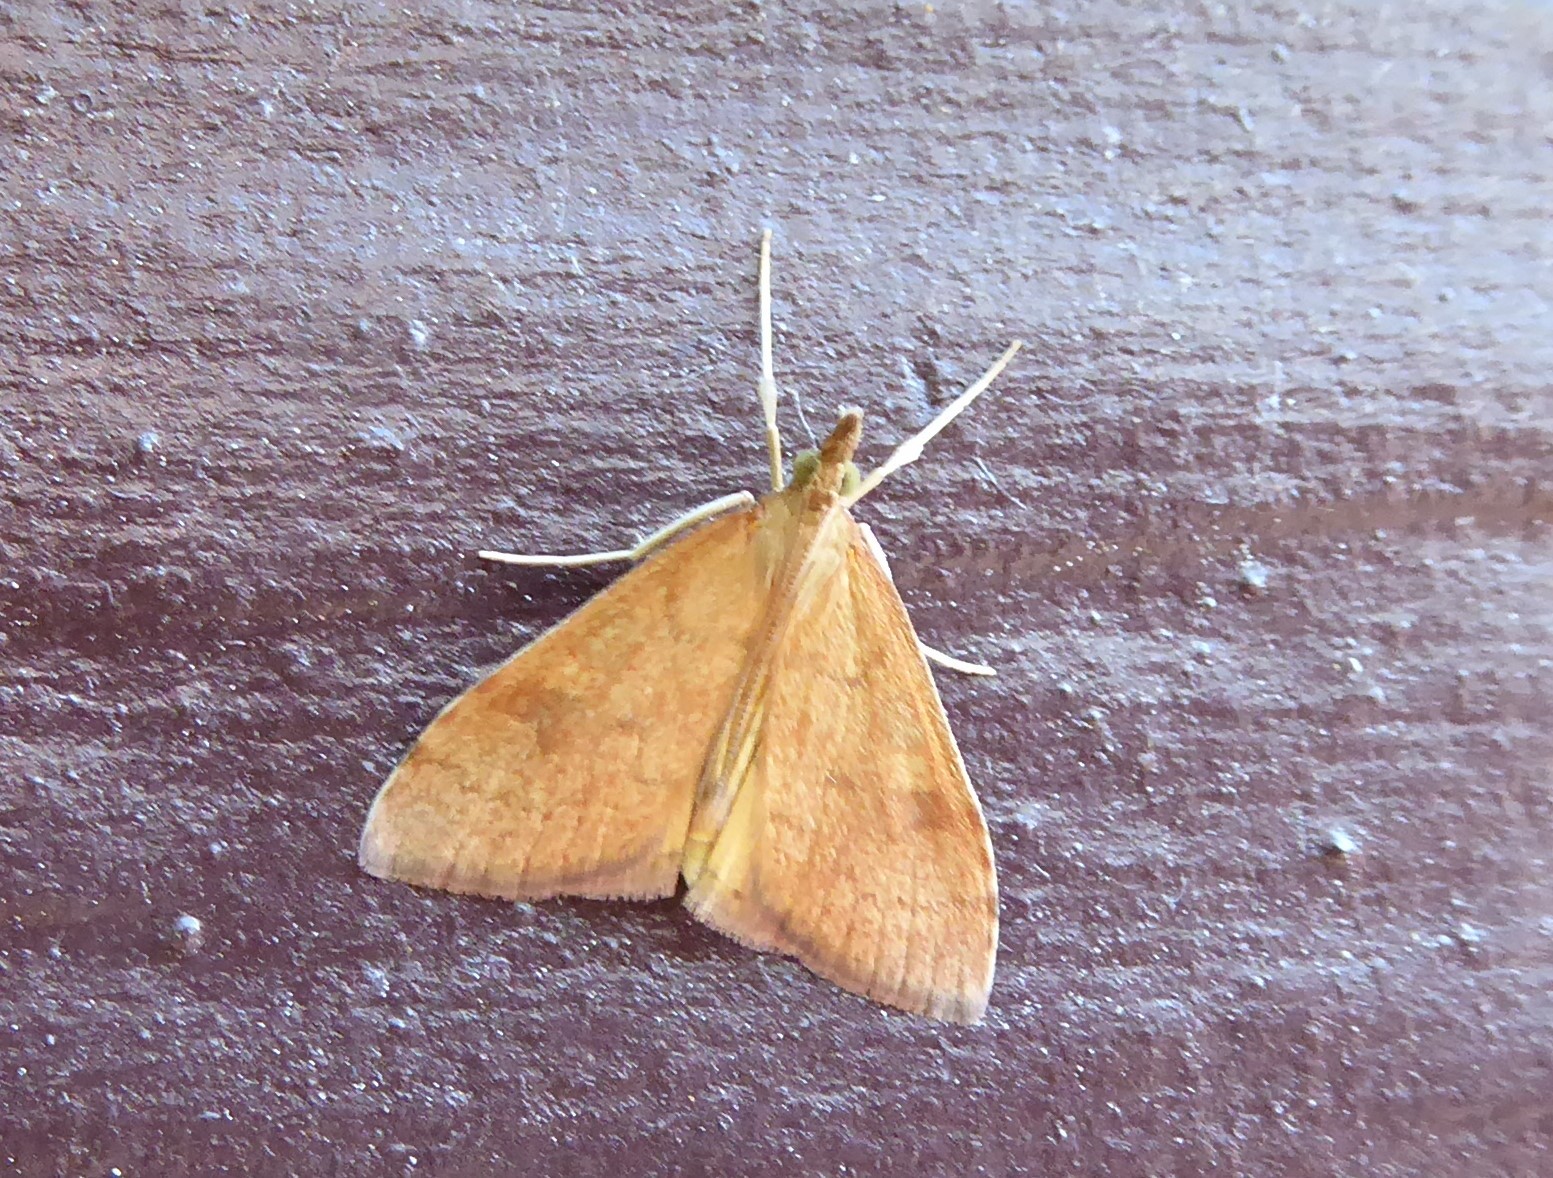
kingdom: Animalia
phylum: Arthropoda
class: Insecta
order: Lepidoptera
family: Crambidae
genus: Udea
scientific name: Udea Mnesictena flavidalis
